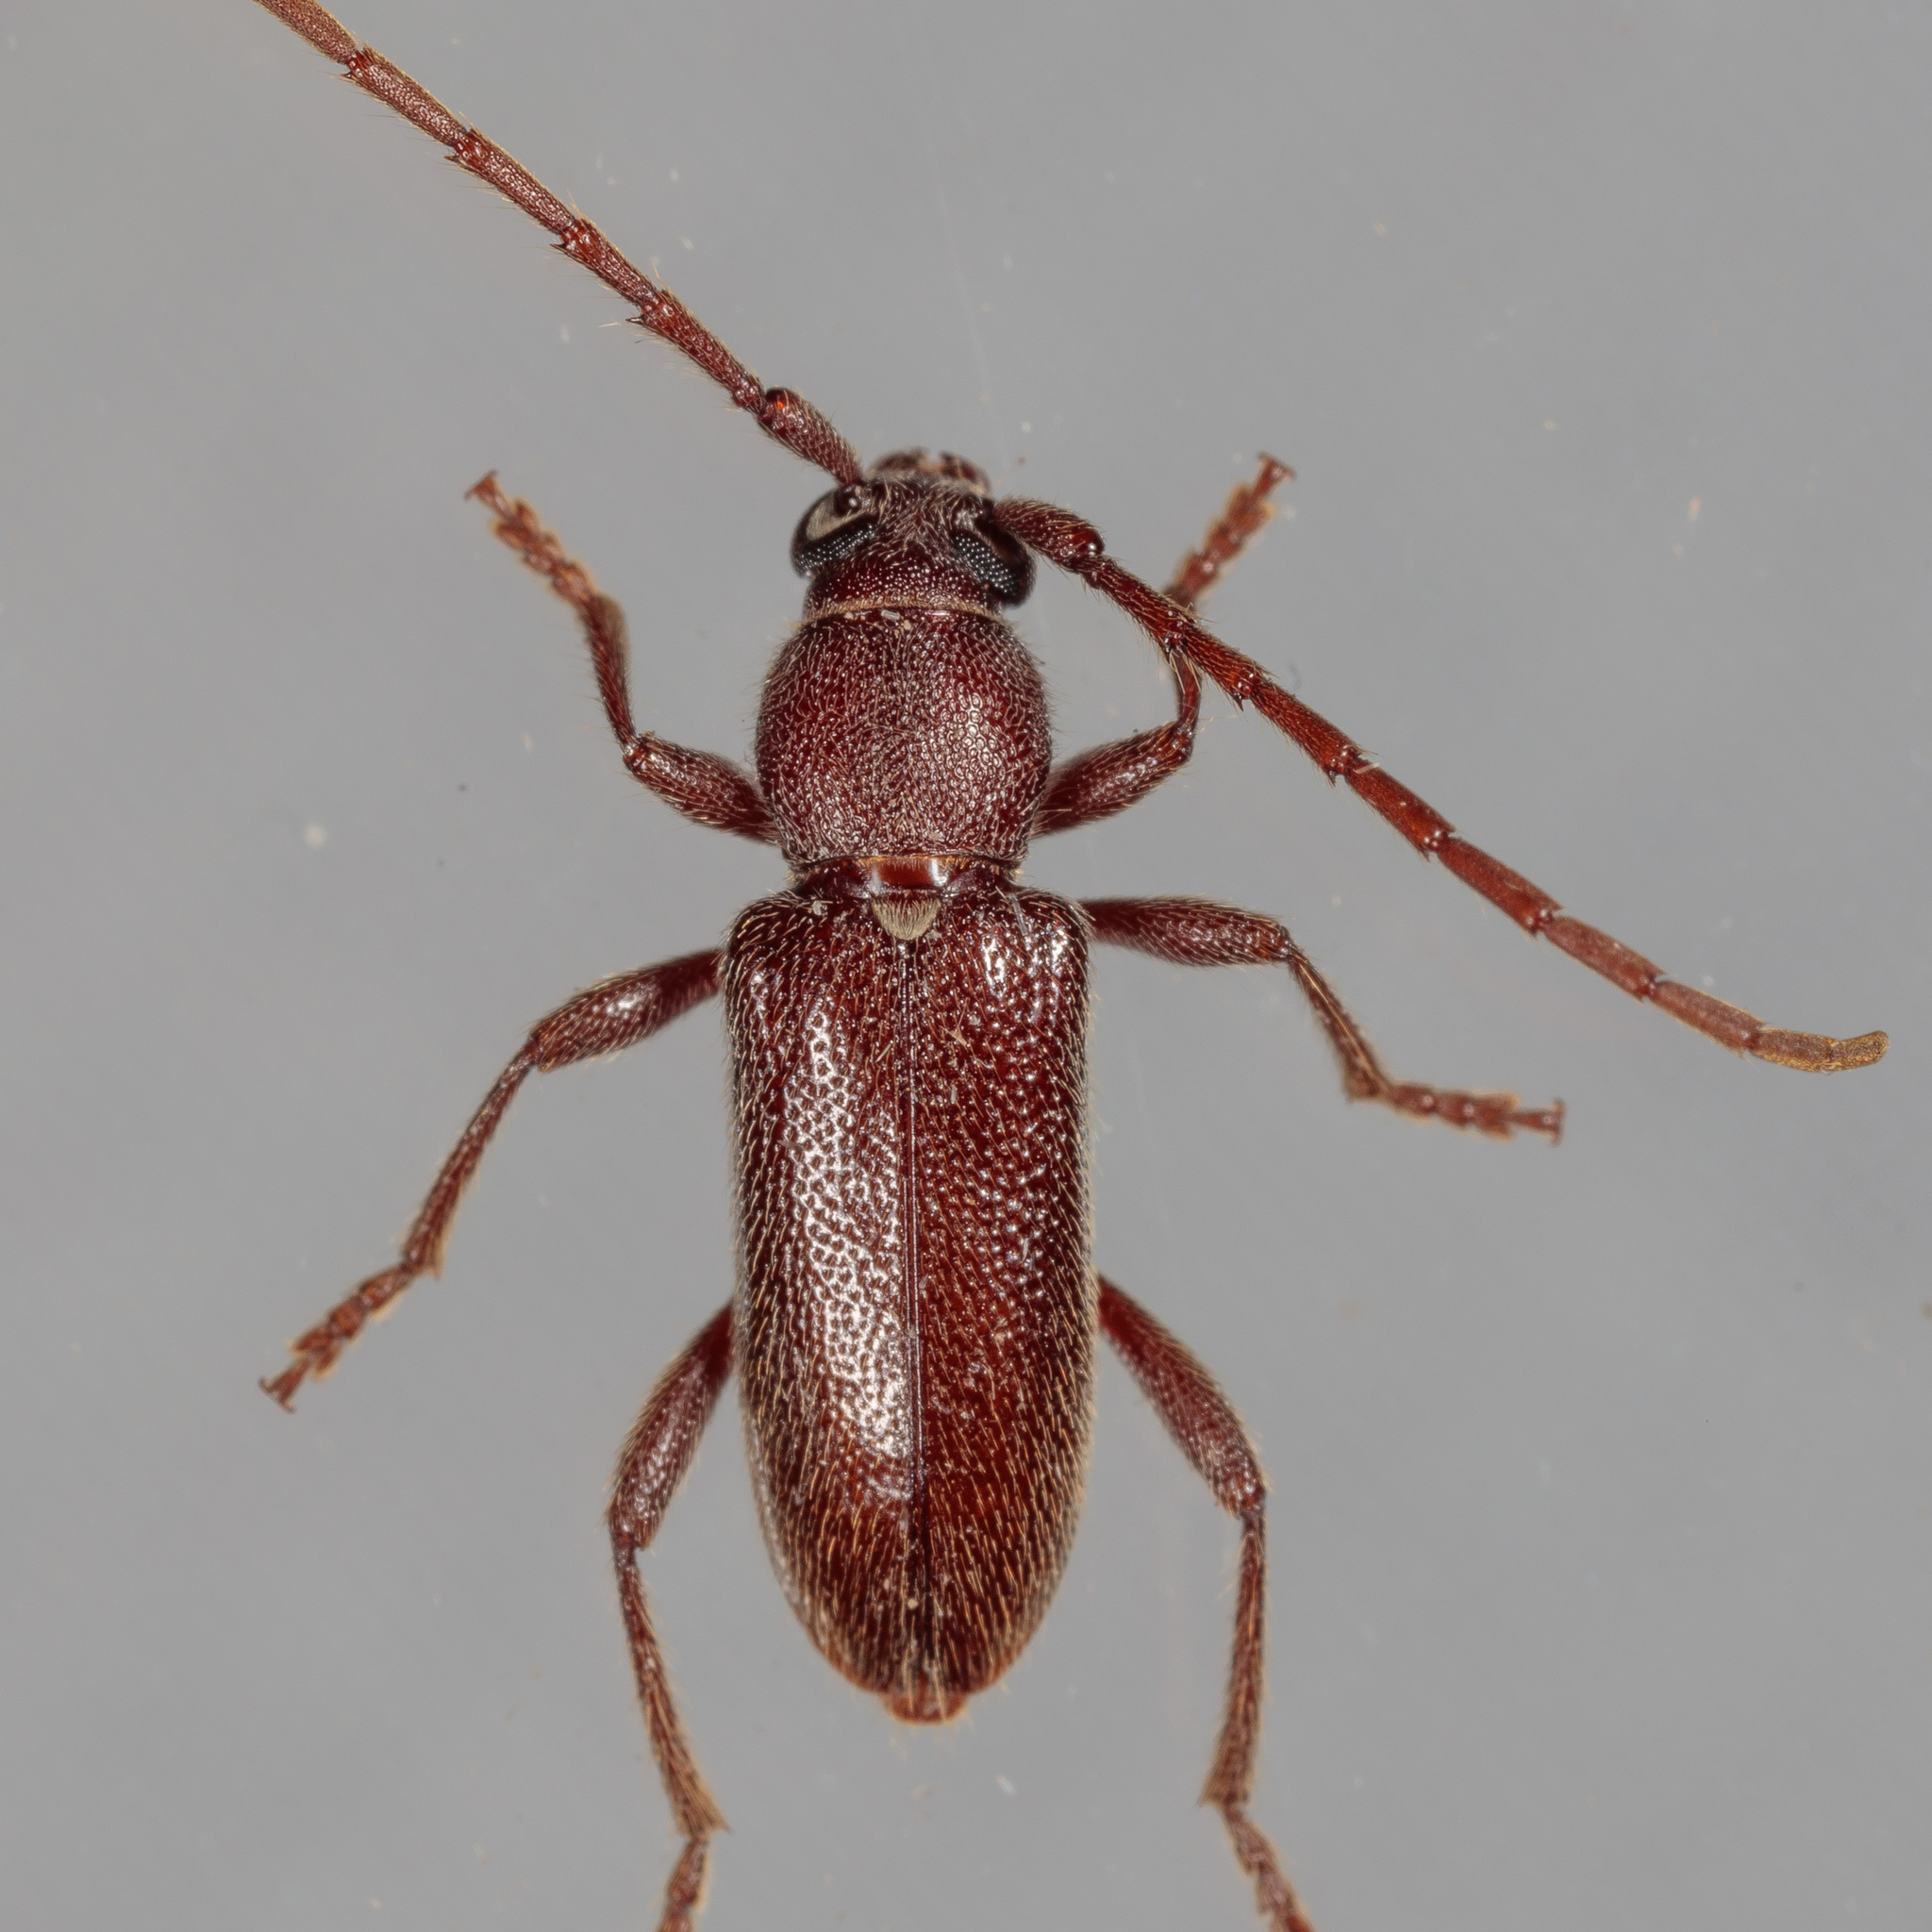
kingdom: Animalia
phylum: Arthropoda
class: Insecta
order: Coleoptera
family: Cerambycidae
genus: Anelaphus
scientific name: Anelaphus moestus
